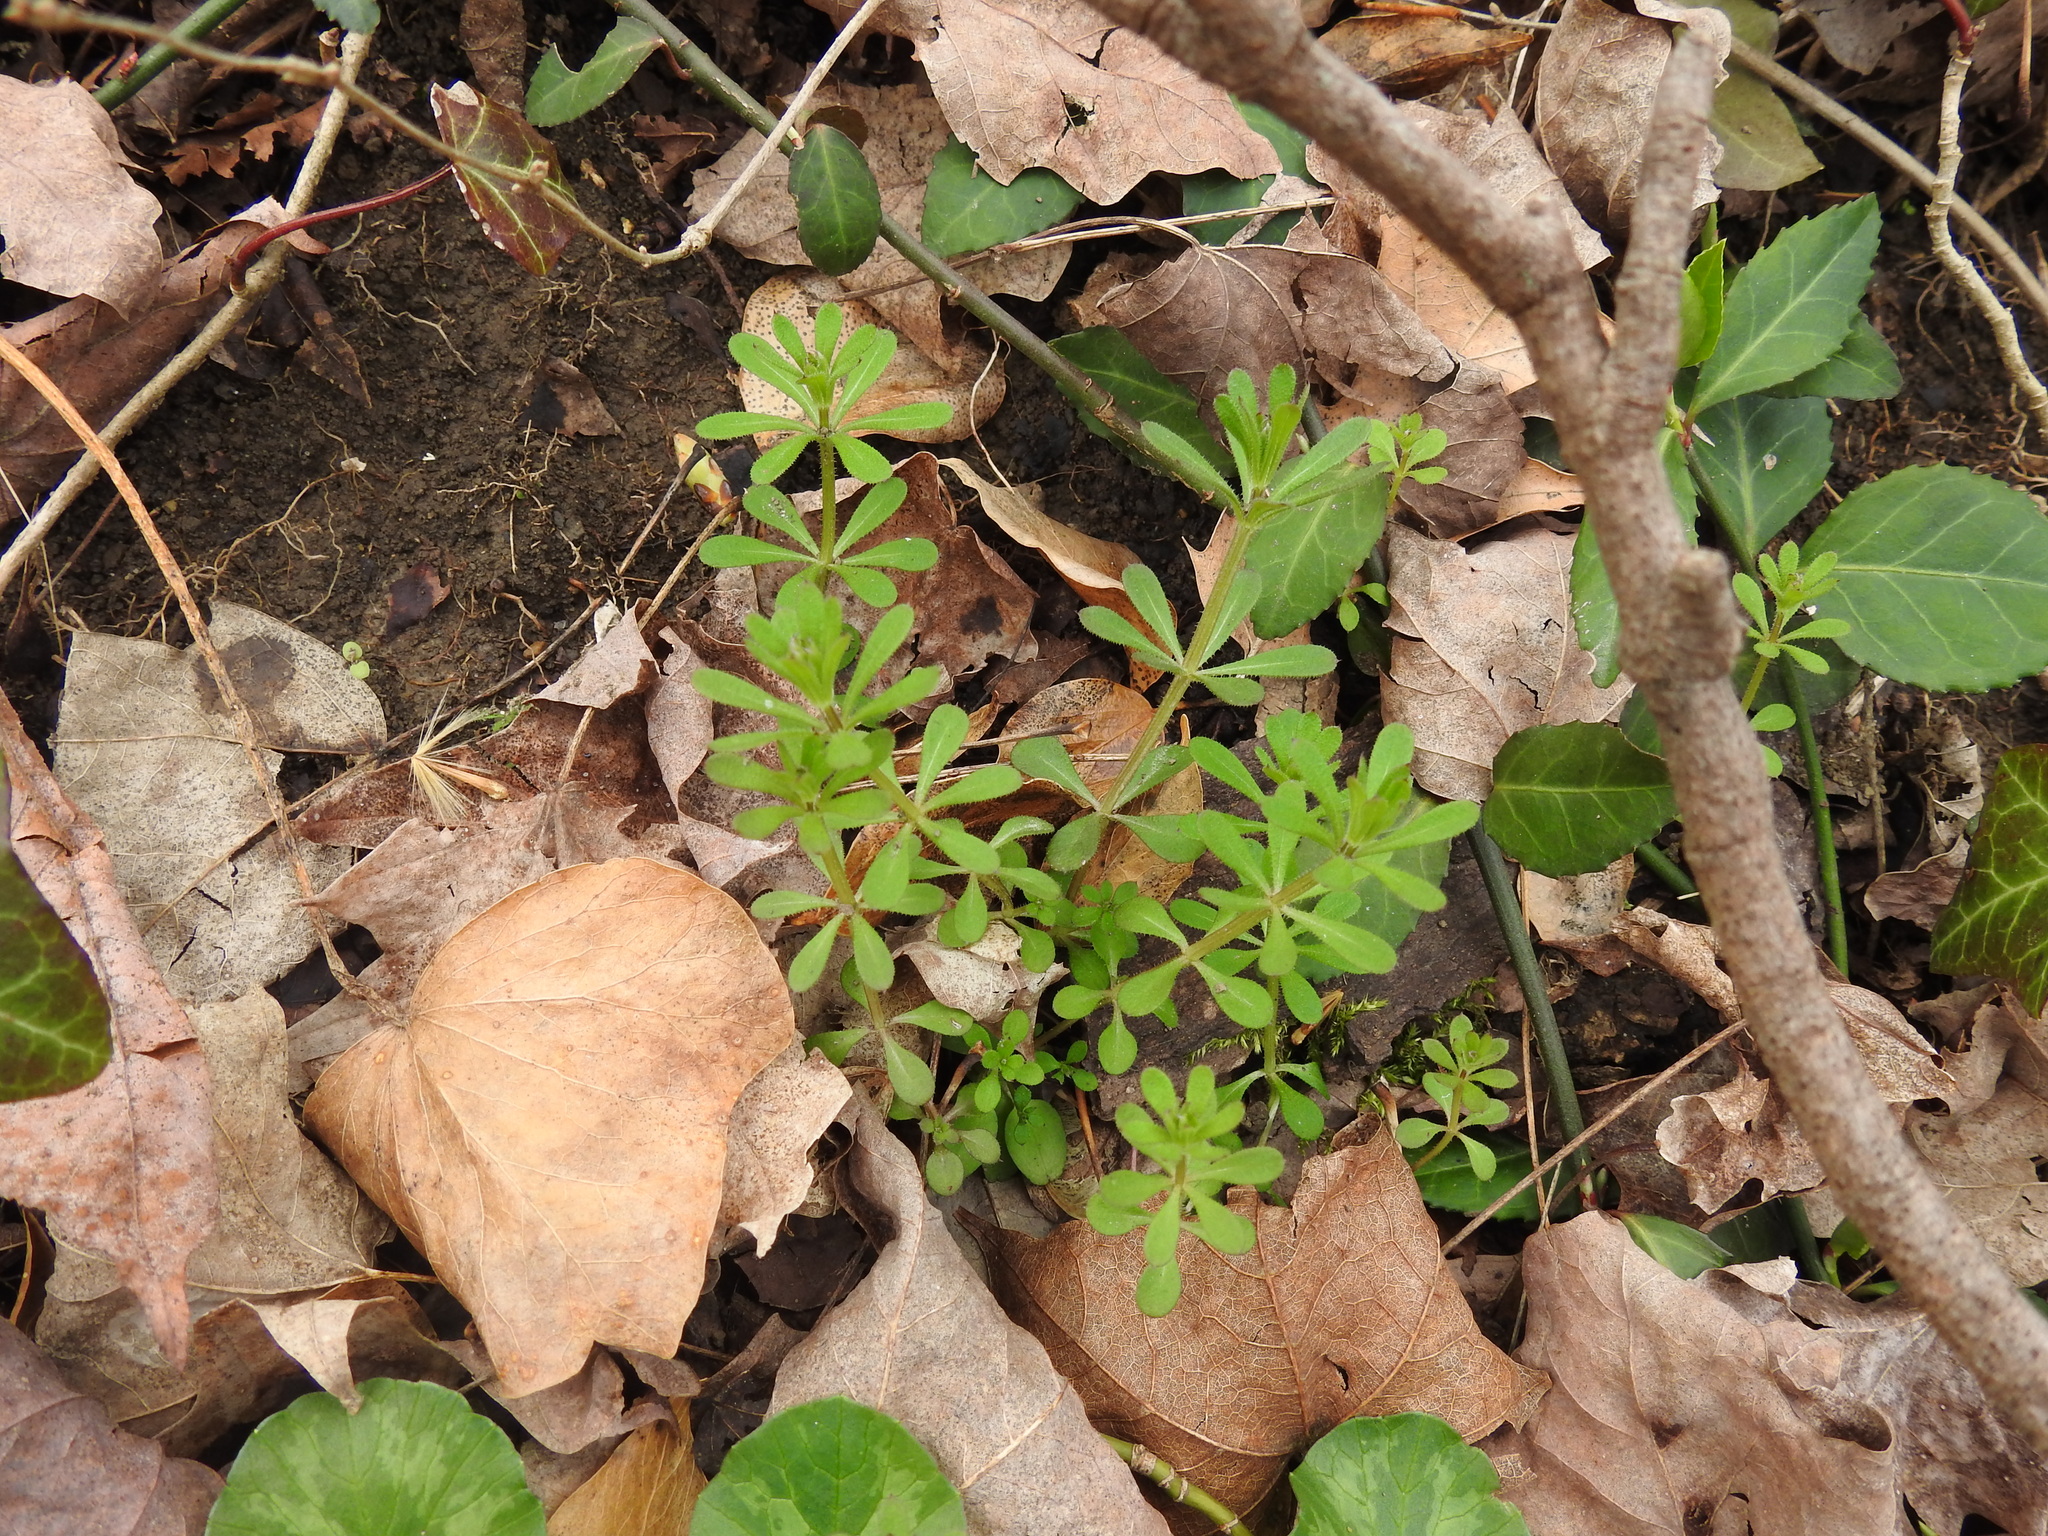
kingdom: Plantae
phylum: Tracheophyta
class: Magnoliopsida
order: Gentianales
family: Rubiaceae
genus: Galium
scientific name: Galium aparine
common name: Cleavers
